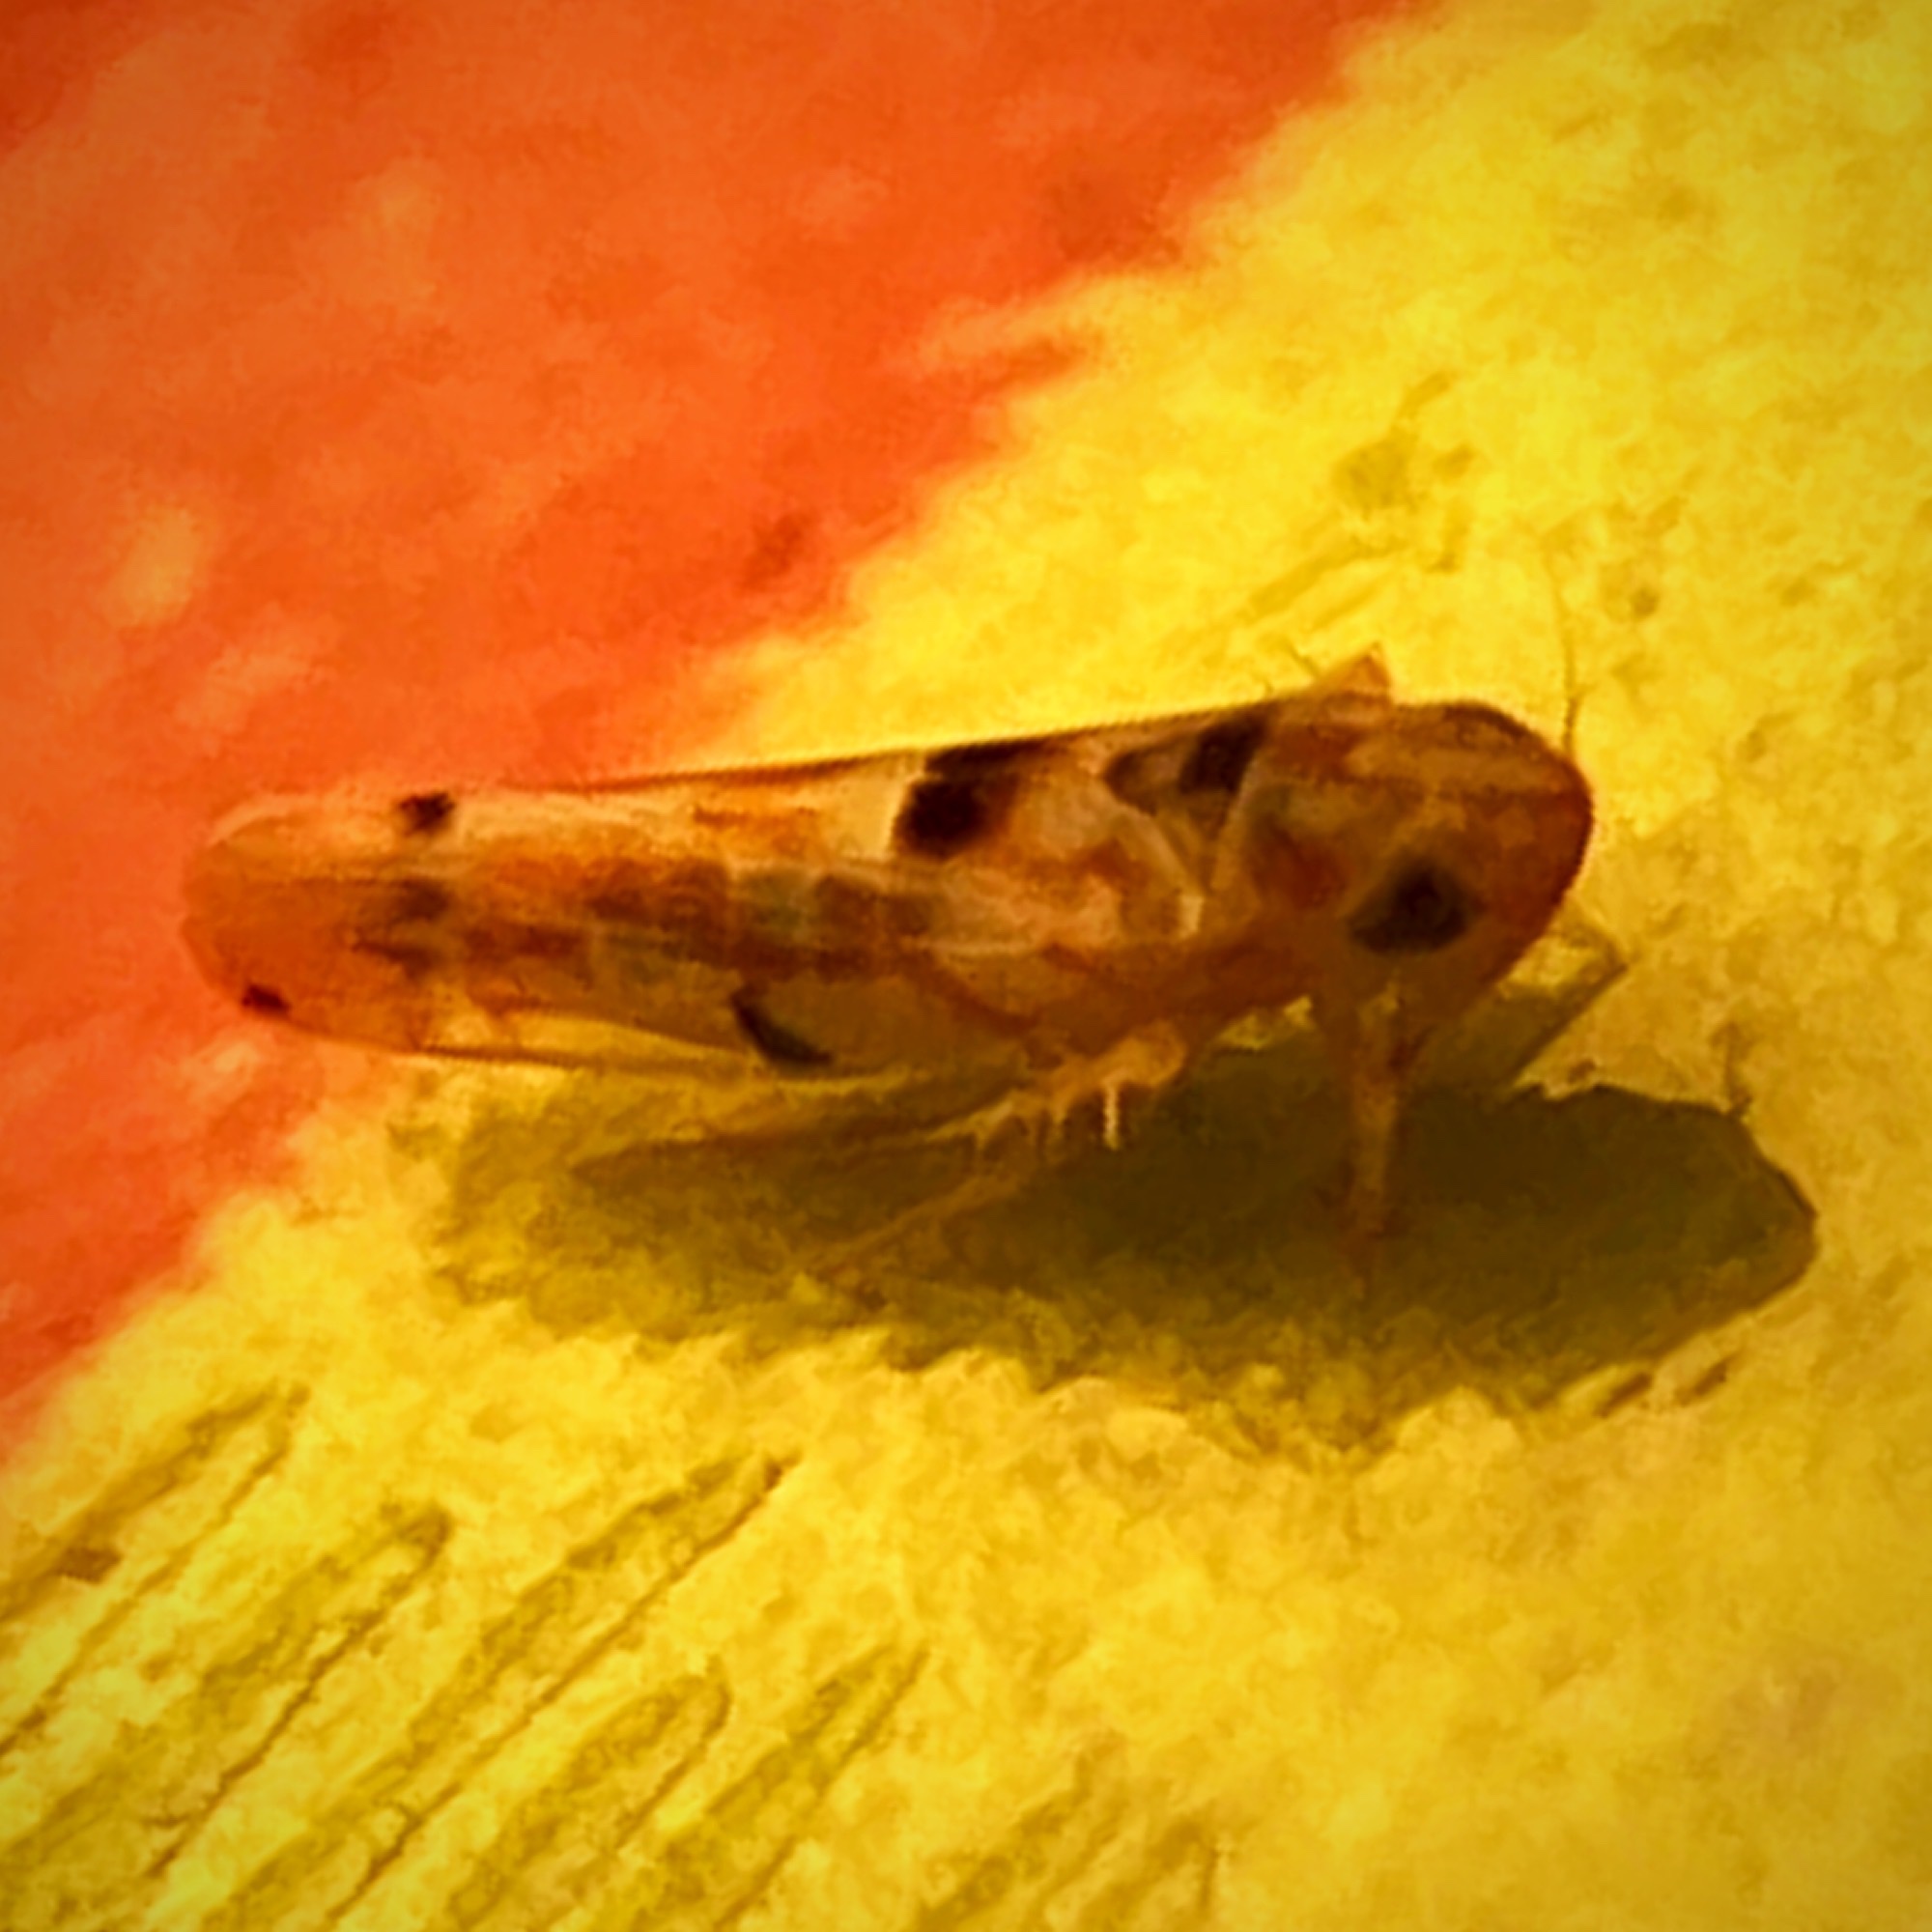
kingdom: Animalia
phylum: Arthropoda
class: Insecta
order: Hemiptera
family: Cicadellidae
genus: Erythroneura
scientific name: Erythroneura octonotata
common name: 8-spotted leafhopper
